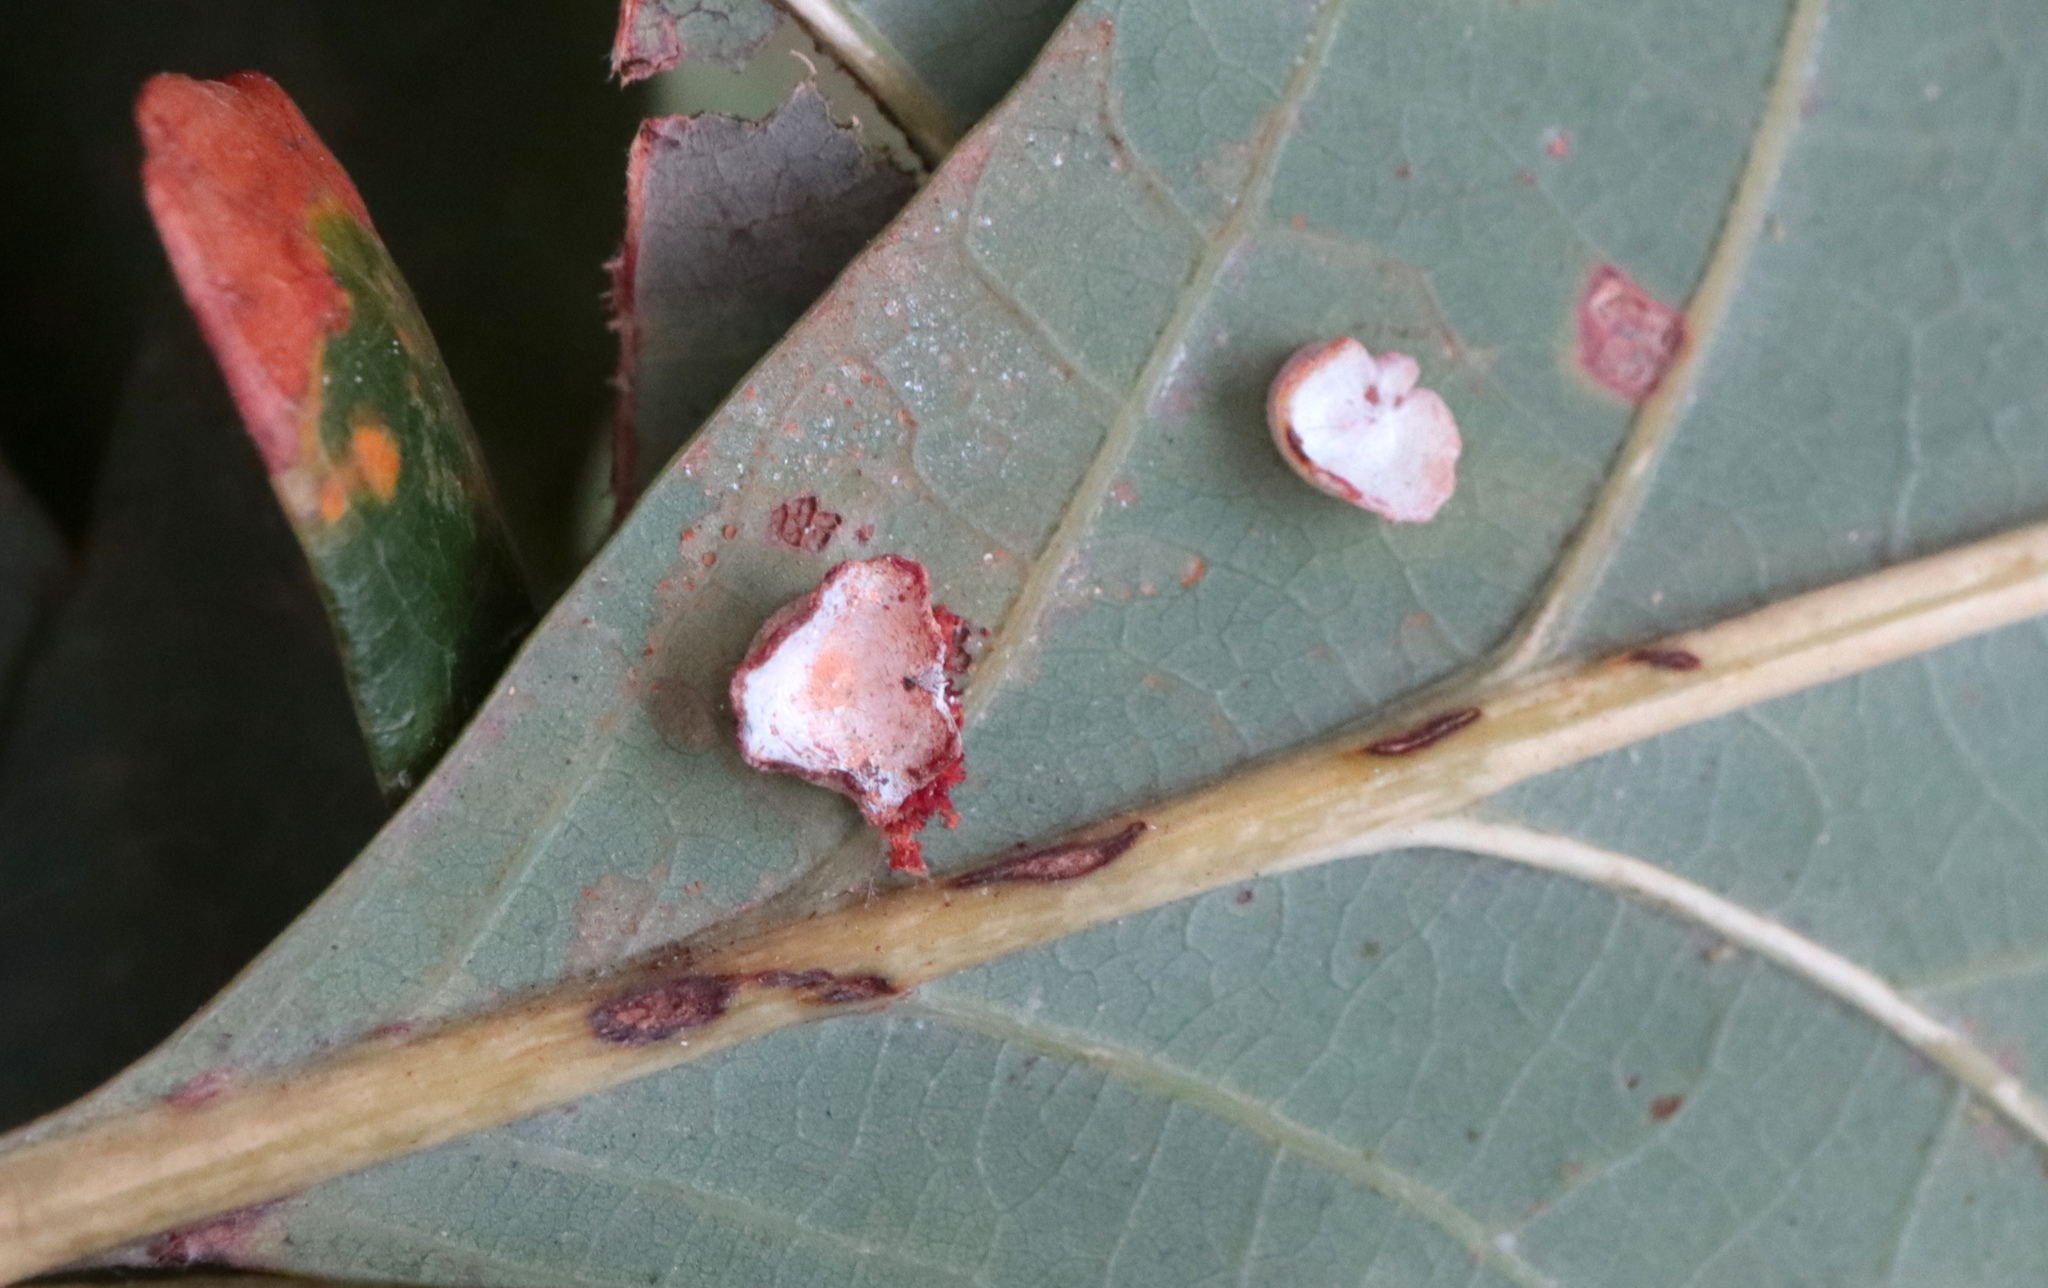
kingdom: Animalia
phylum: Arthropoda
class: Insecta
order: Hymenoptera
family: Cynipidae
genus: Phylloteras
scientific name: Phylloteras poculum
